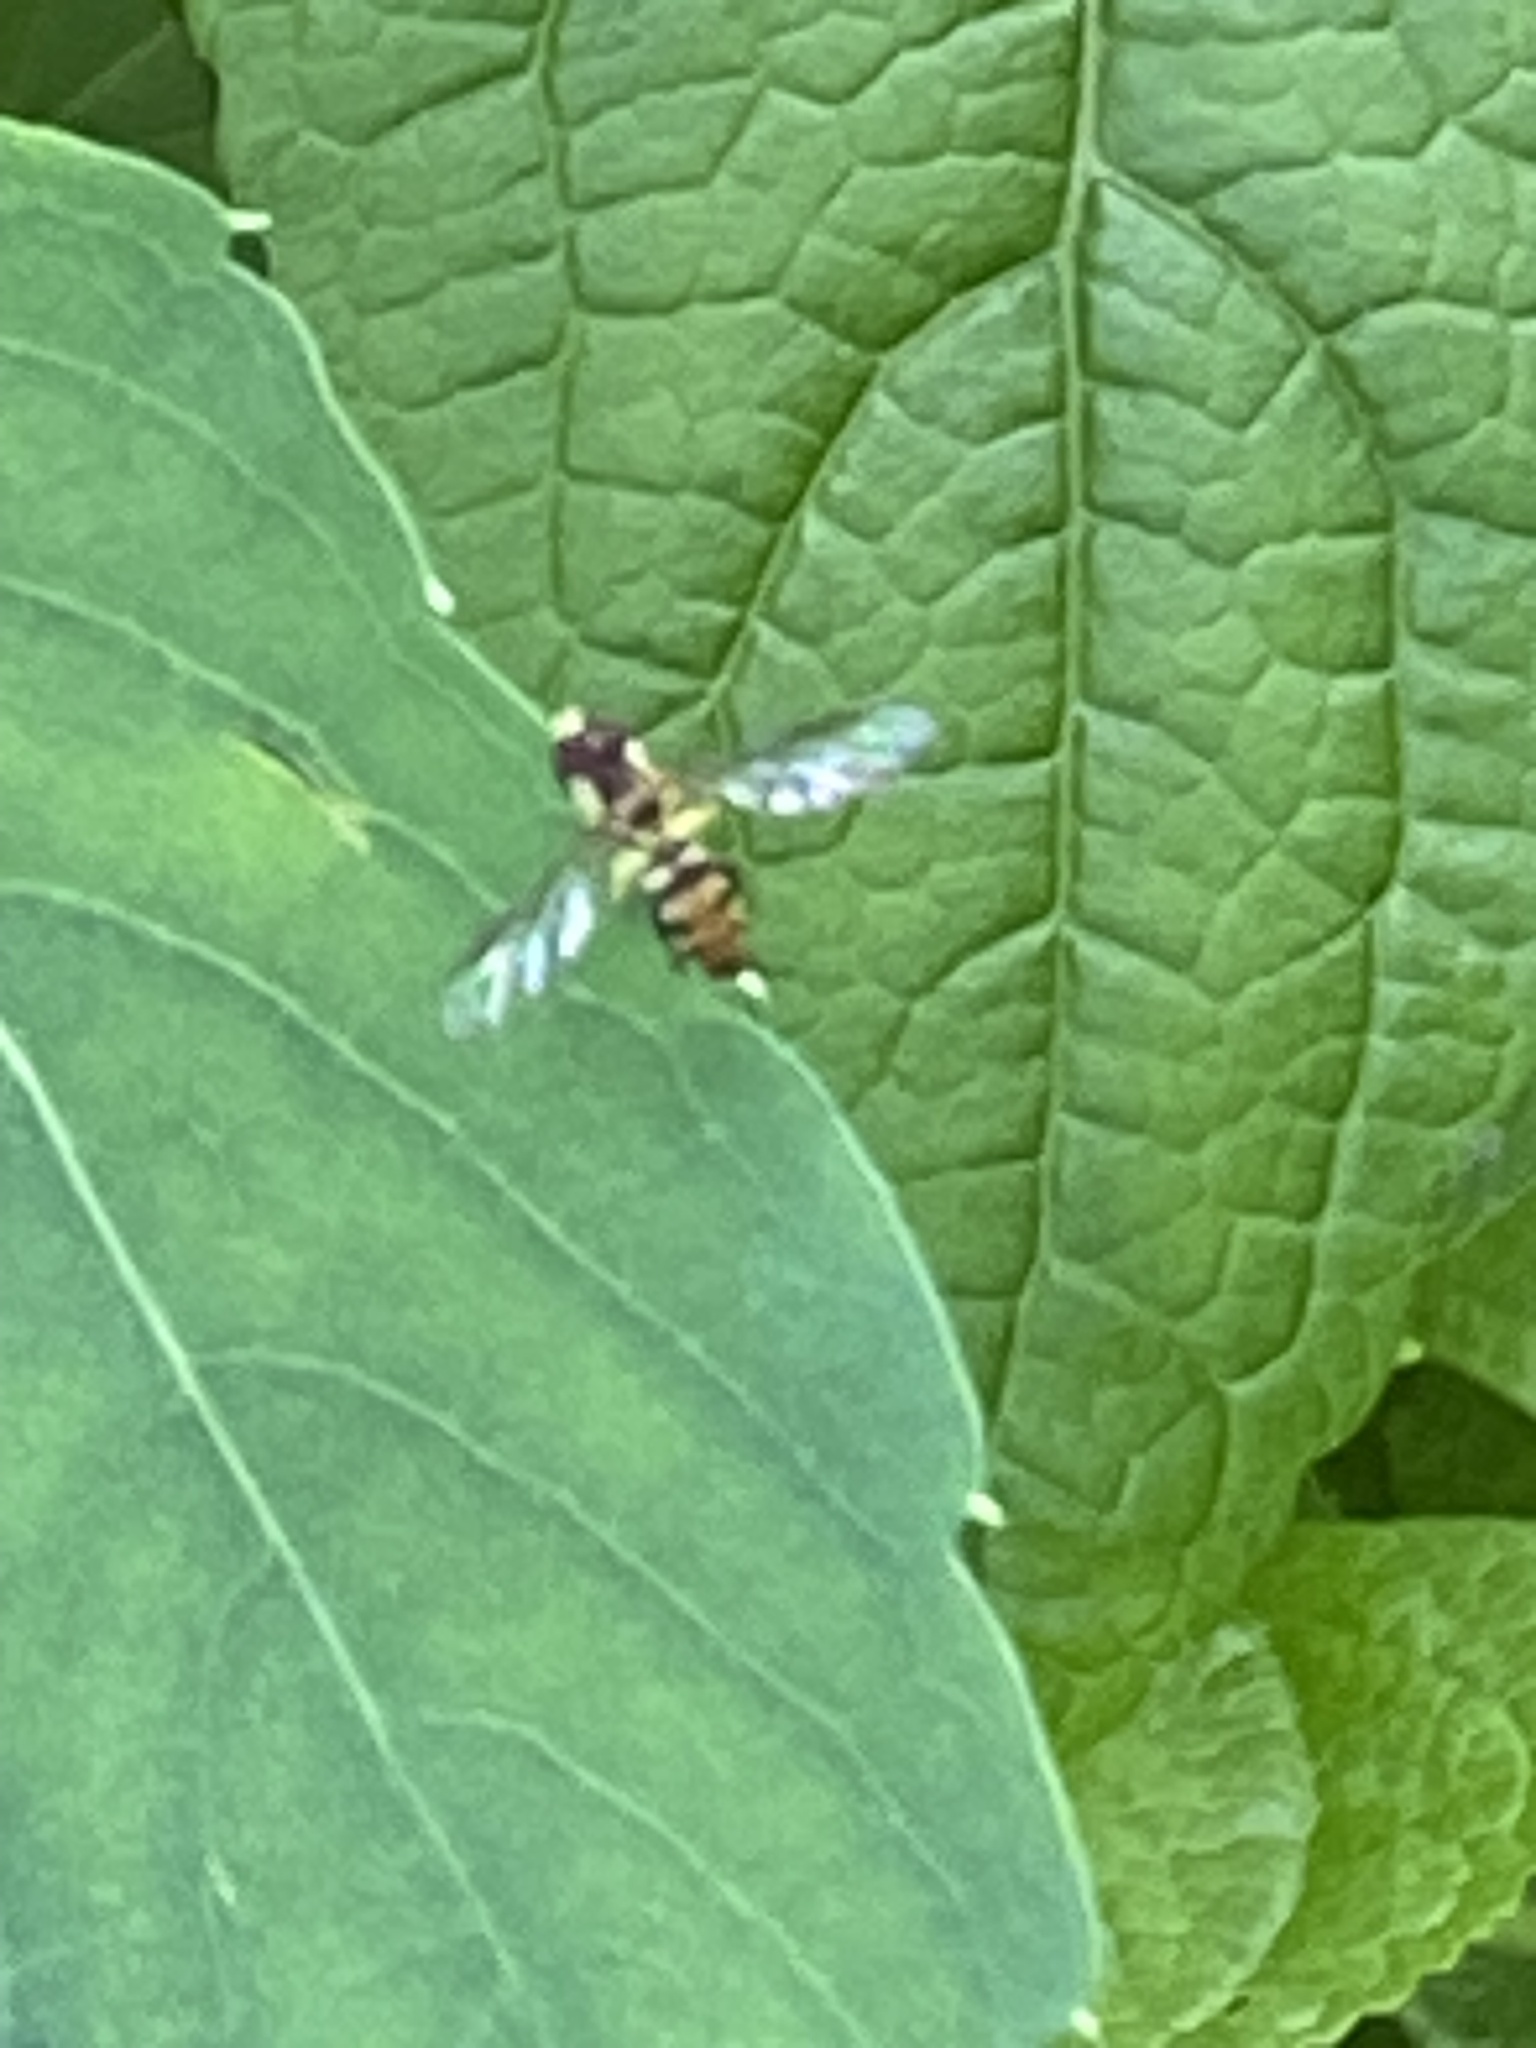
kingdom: Animalia
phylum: Arthropoda
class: Insecta
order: Diptera
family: Syrphidae
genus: Toxomerus
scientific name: Toxomerus geminatus
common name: Eastern calligrapher
